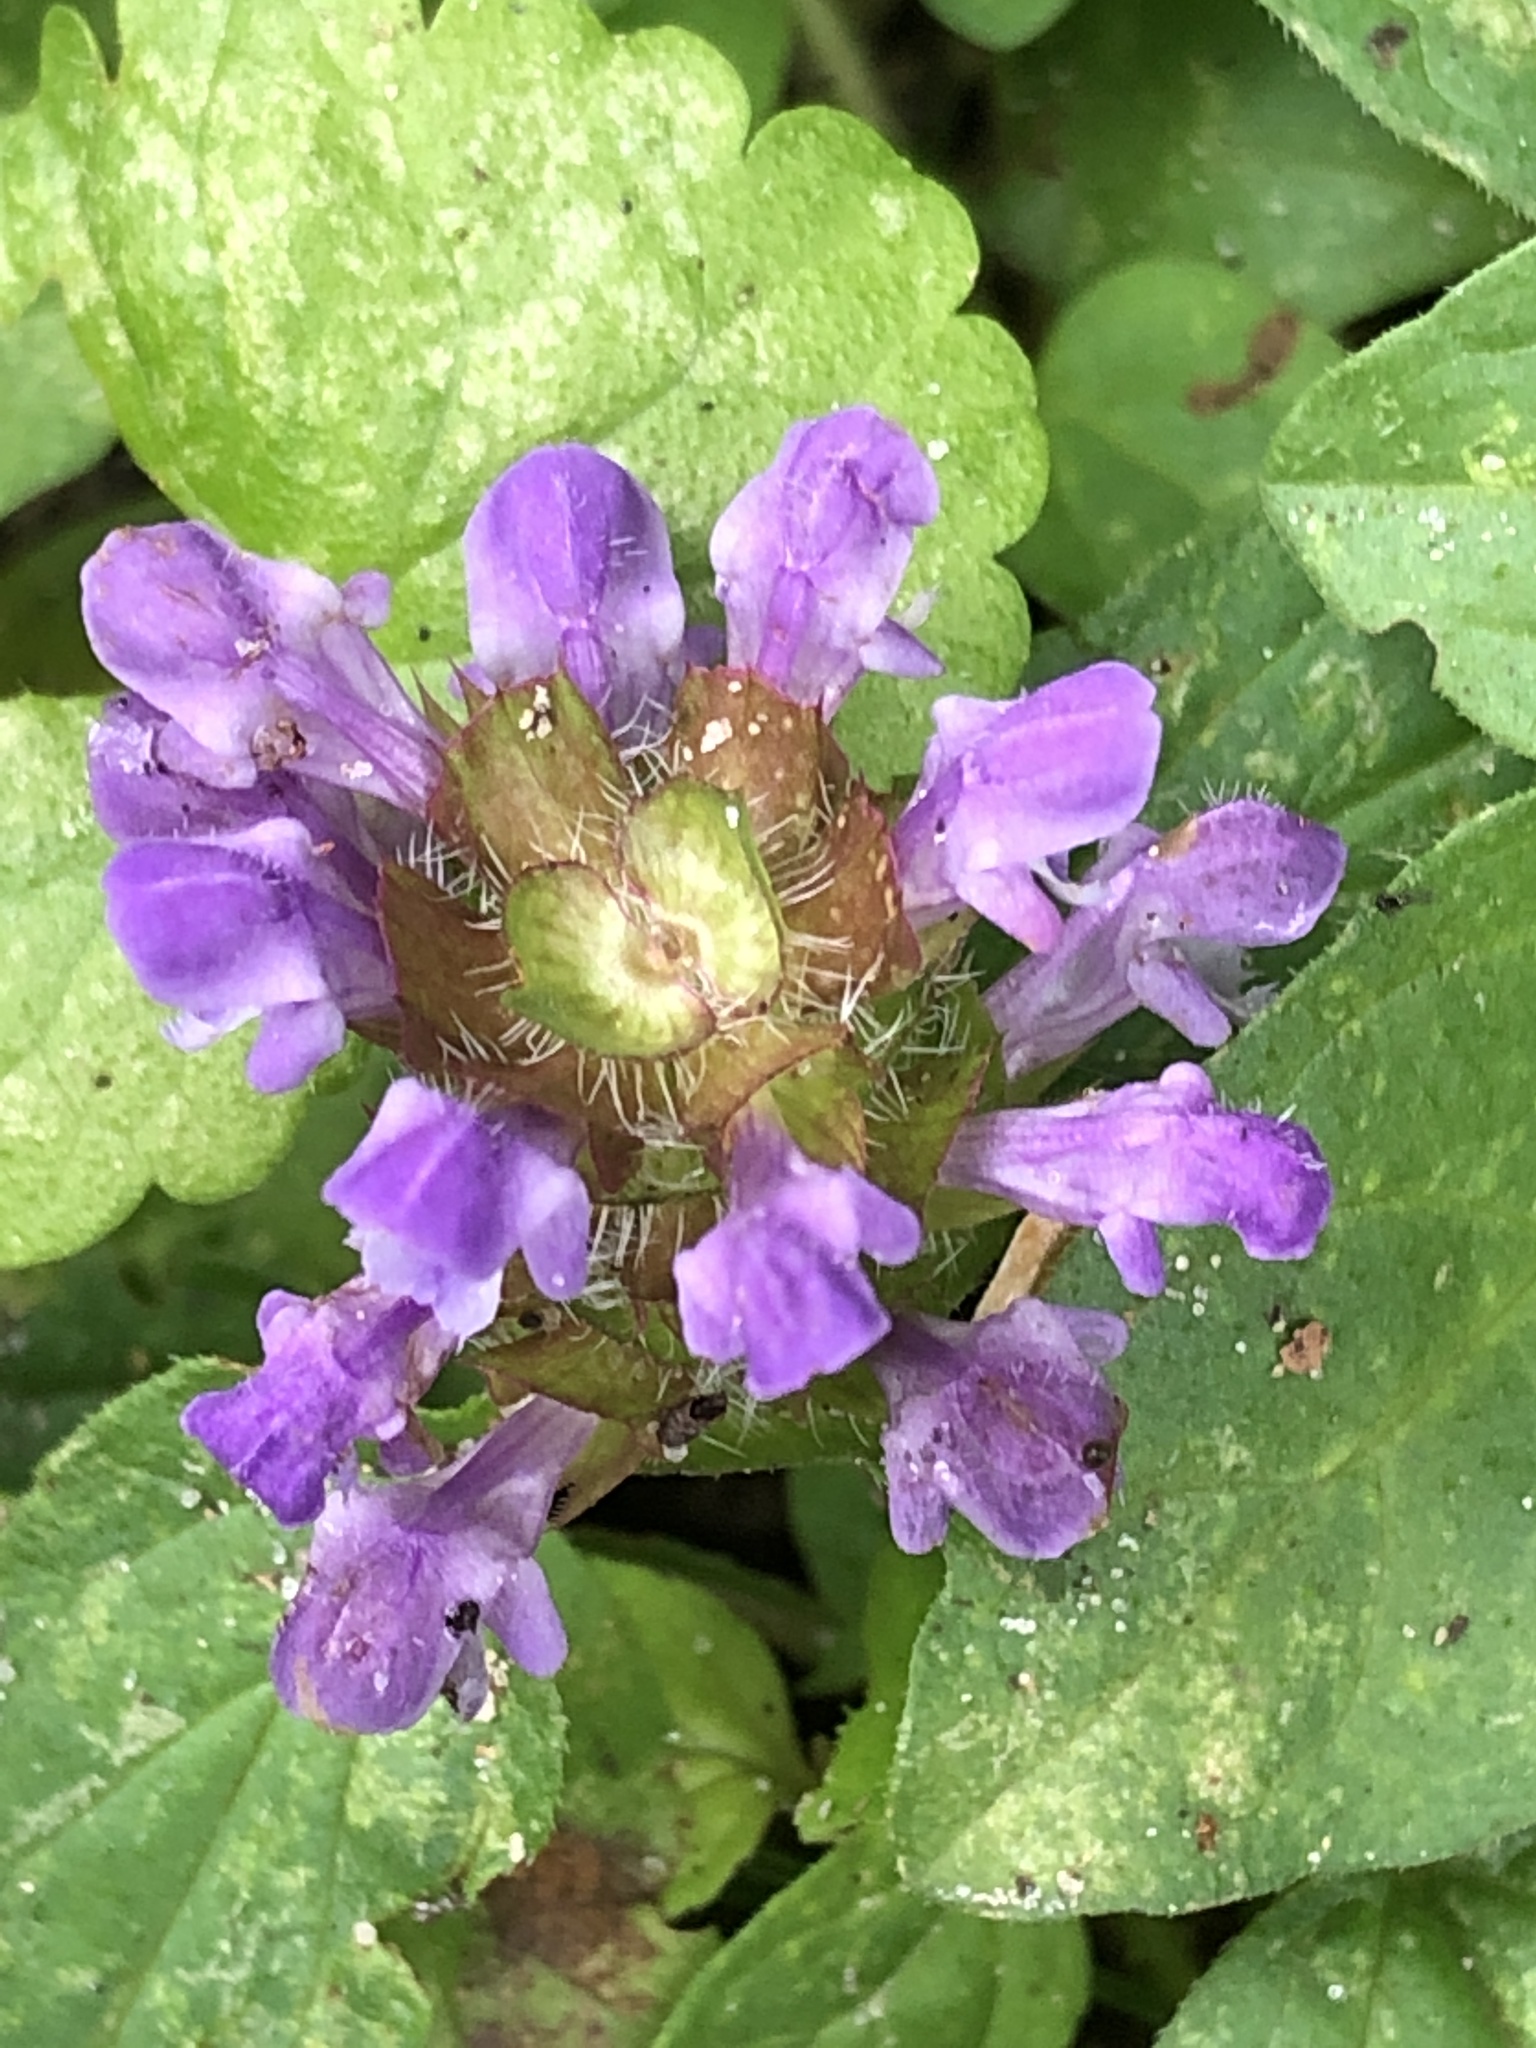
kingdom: Plantae
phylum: Tracheophyta
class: Magnoliopsida
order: Lamiales
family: Lamiaceae
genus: Prunella
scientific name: Prunella vulgaris
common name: Heal-all
